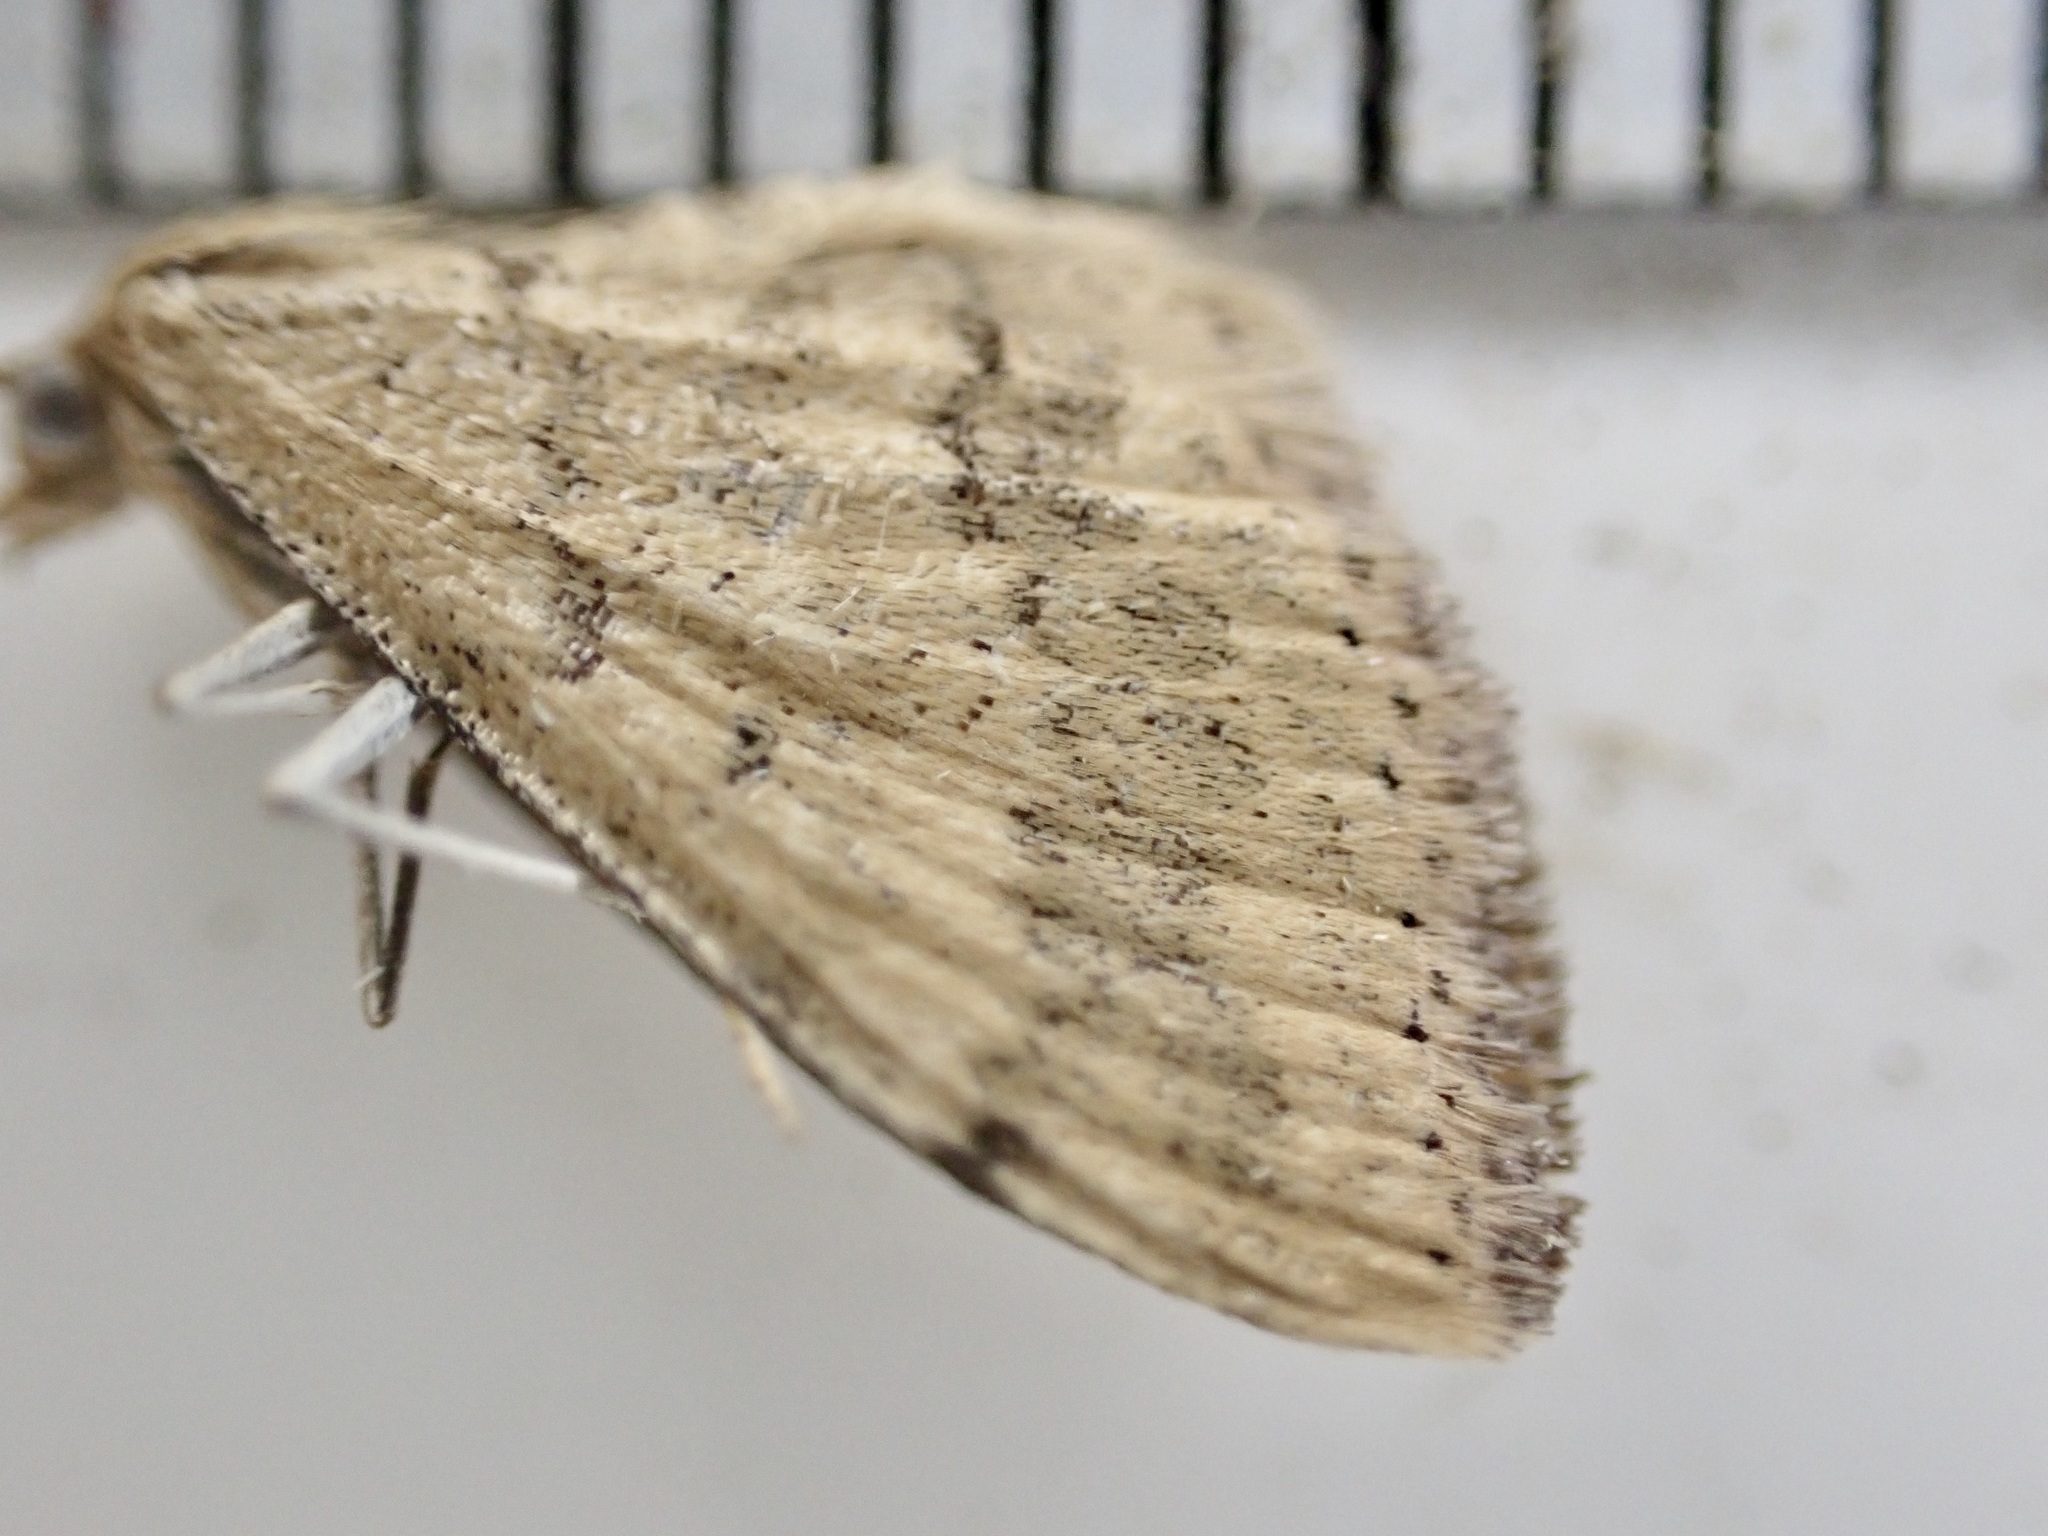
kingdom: Animalia
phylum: Arthropoda
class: Insecta
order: Lepidoptera
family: Geometridae
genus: Scopula
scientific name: Scopula rubraria
